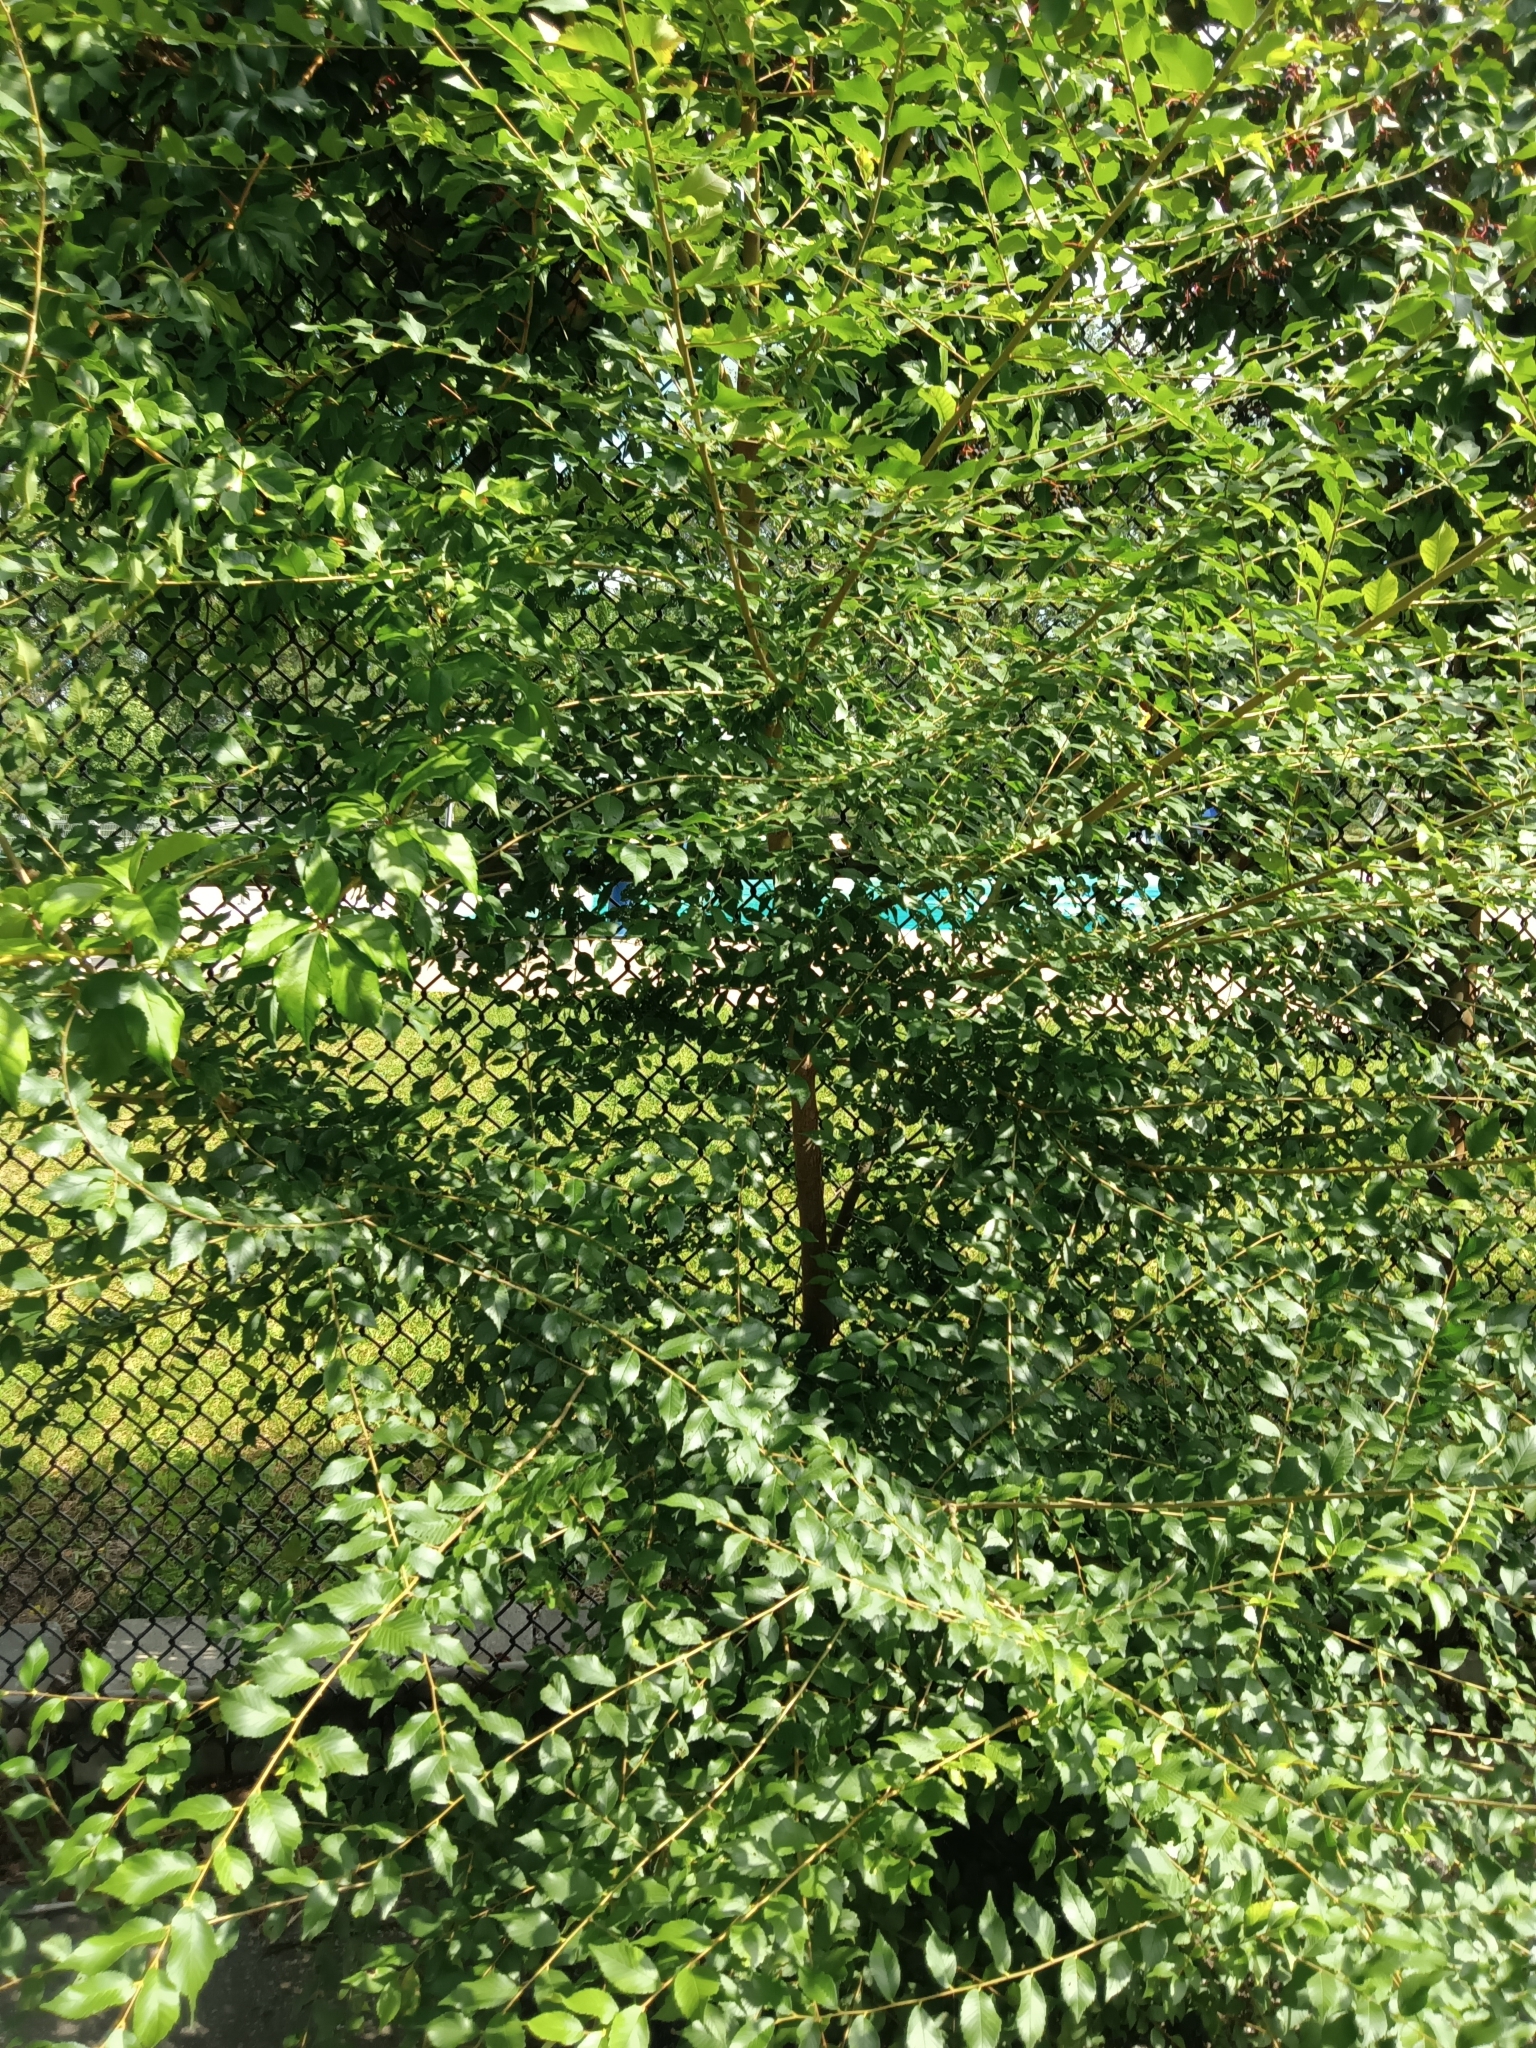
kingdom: Plantae
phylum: Tracheophyta
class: Magnoliopsida
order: Rosales
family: Ulmaceae
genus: Ulmus
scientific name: Ulmus pumila
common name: Siberian elm
